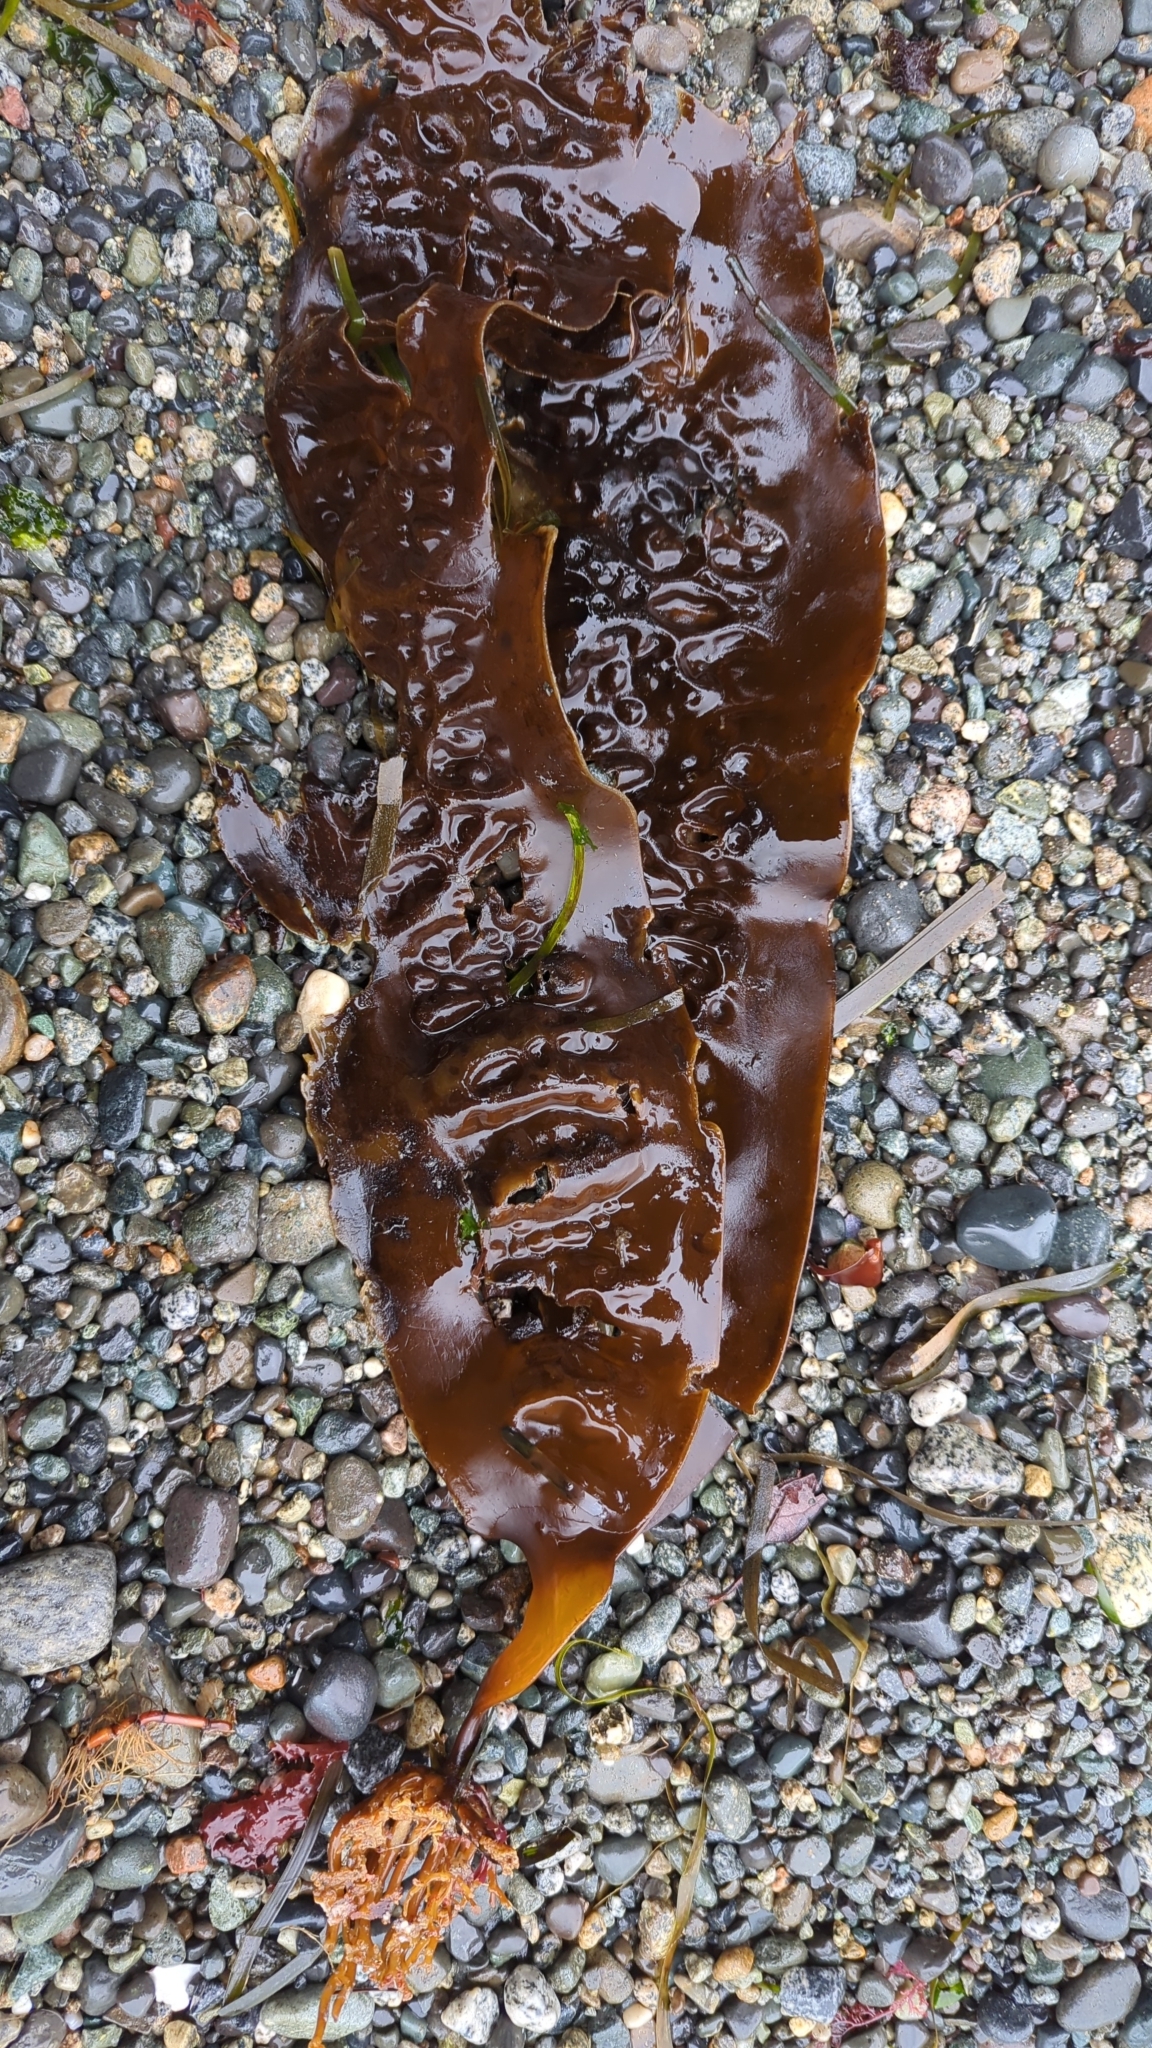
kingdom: Chromista
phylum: Ochrophyta
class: Phaeophyceae
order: Laminariales
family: Laminariaceae
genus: Saccharina
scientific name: Saccharina latissima
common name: Poor man's weather glass
